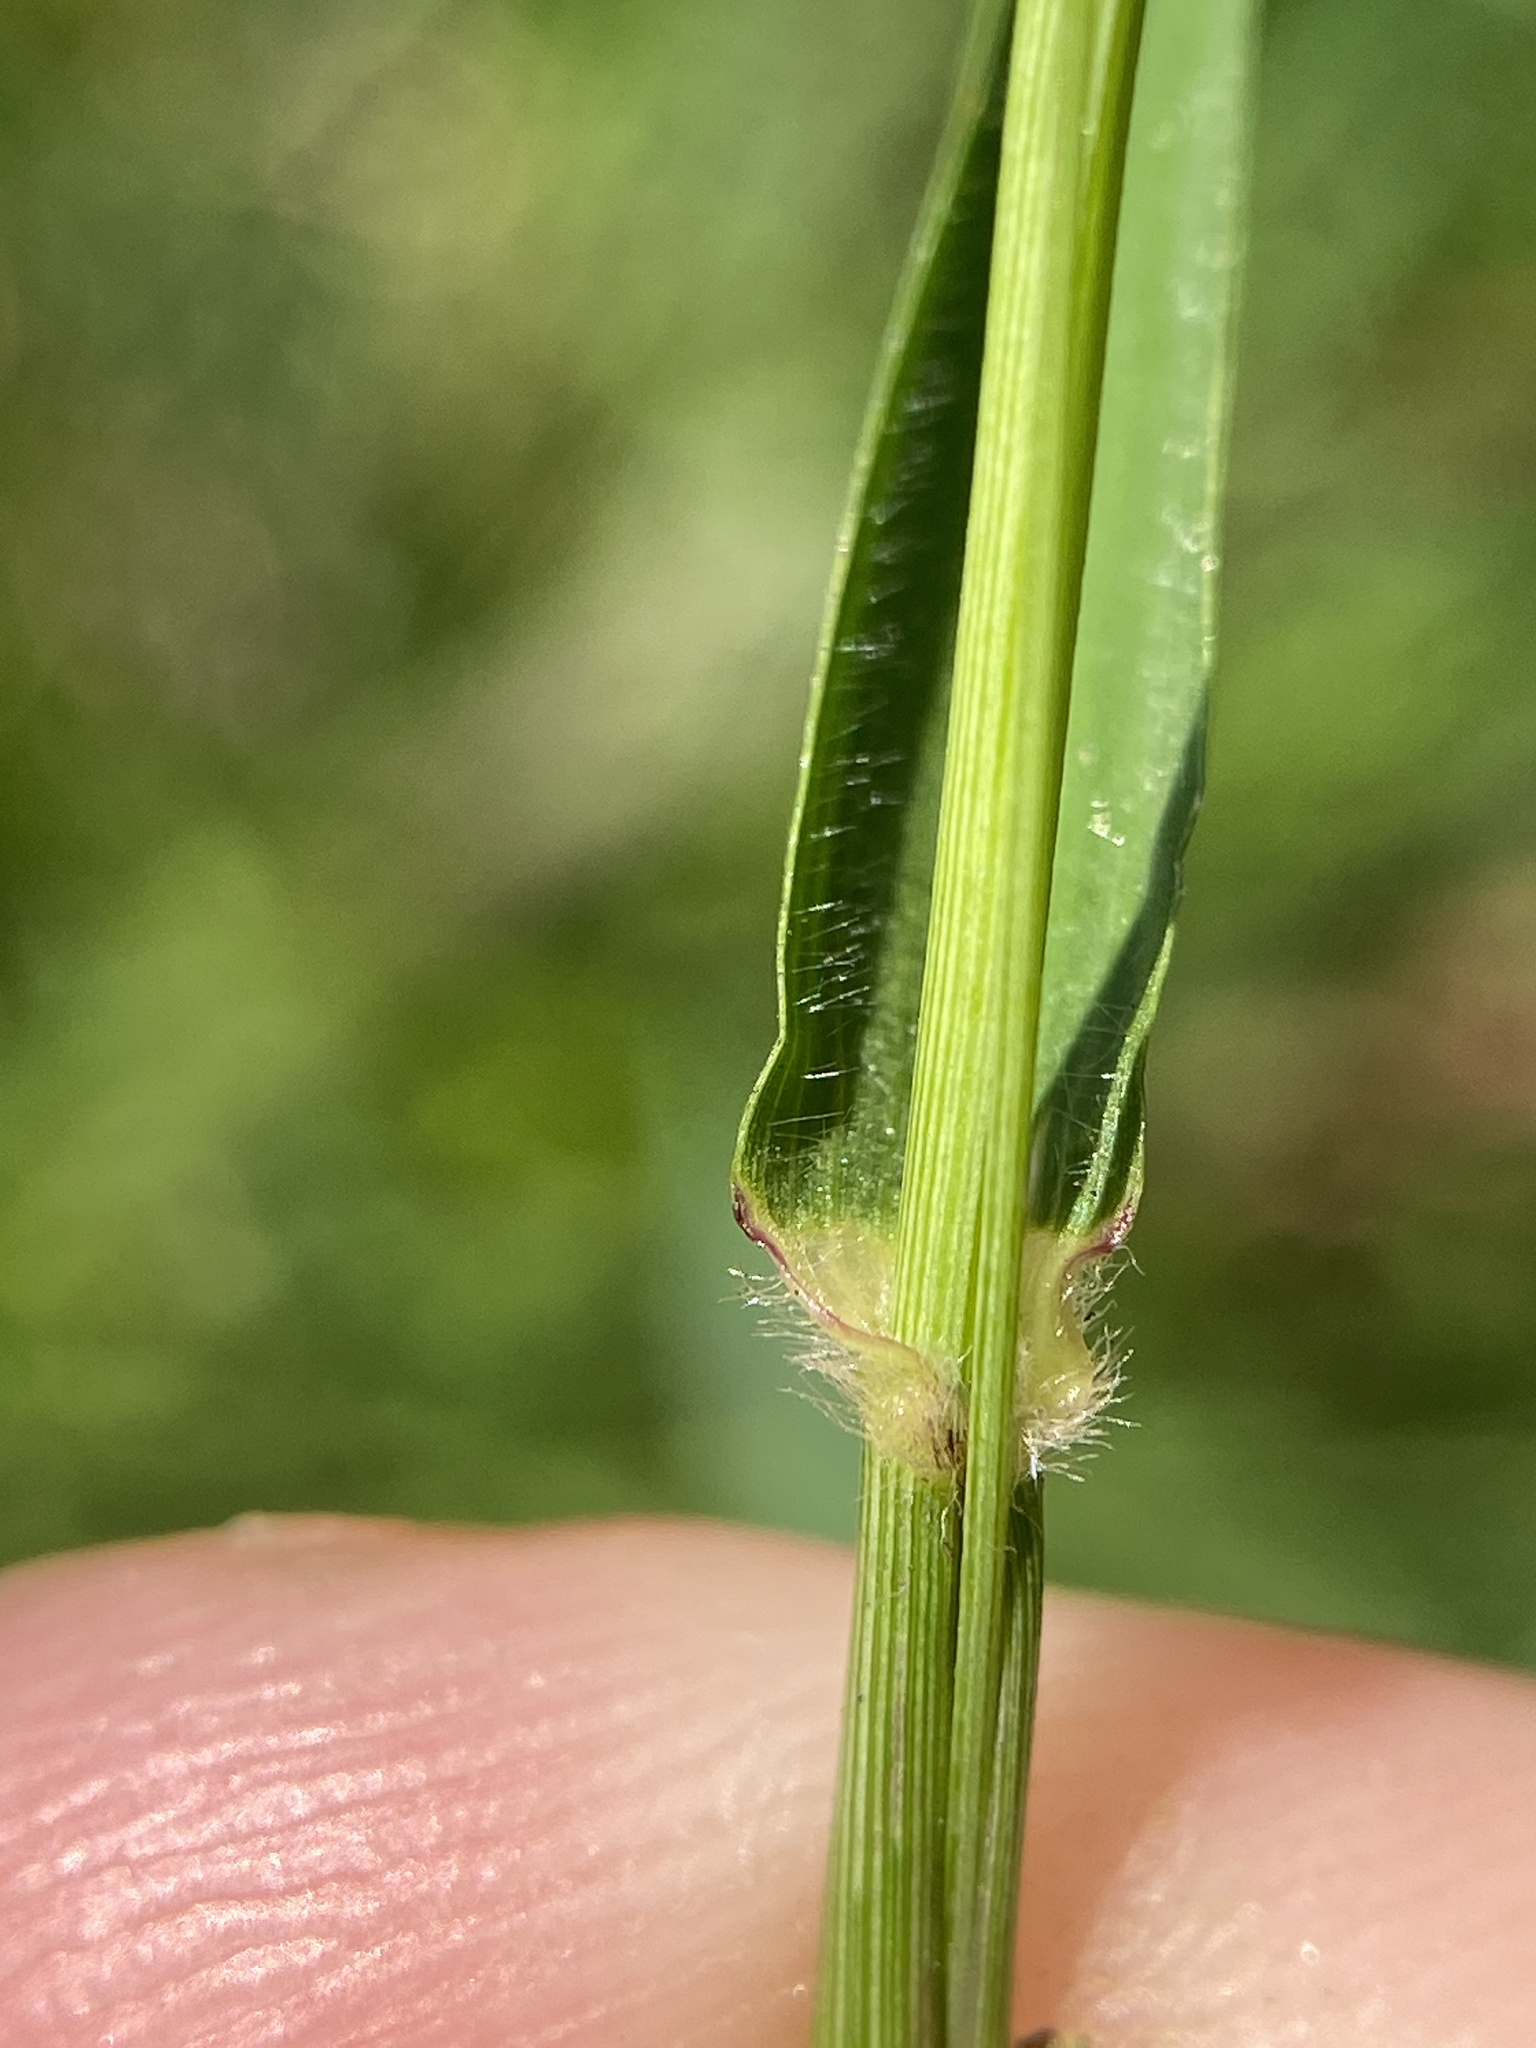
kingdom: Plantae
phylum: Tracheophyta
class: Liliopsida
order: Poales
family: Poaceae
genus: Tridens
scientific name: Tridens flavus
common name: Purpletop
